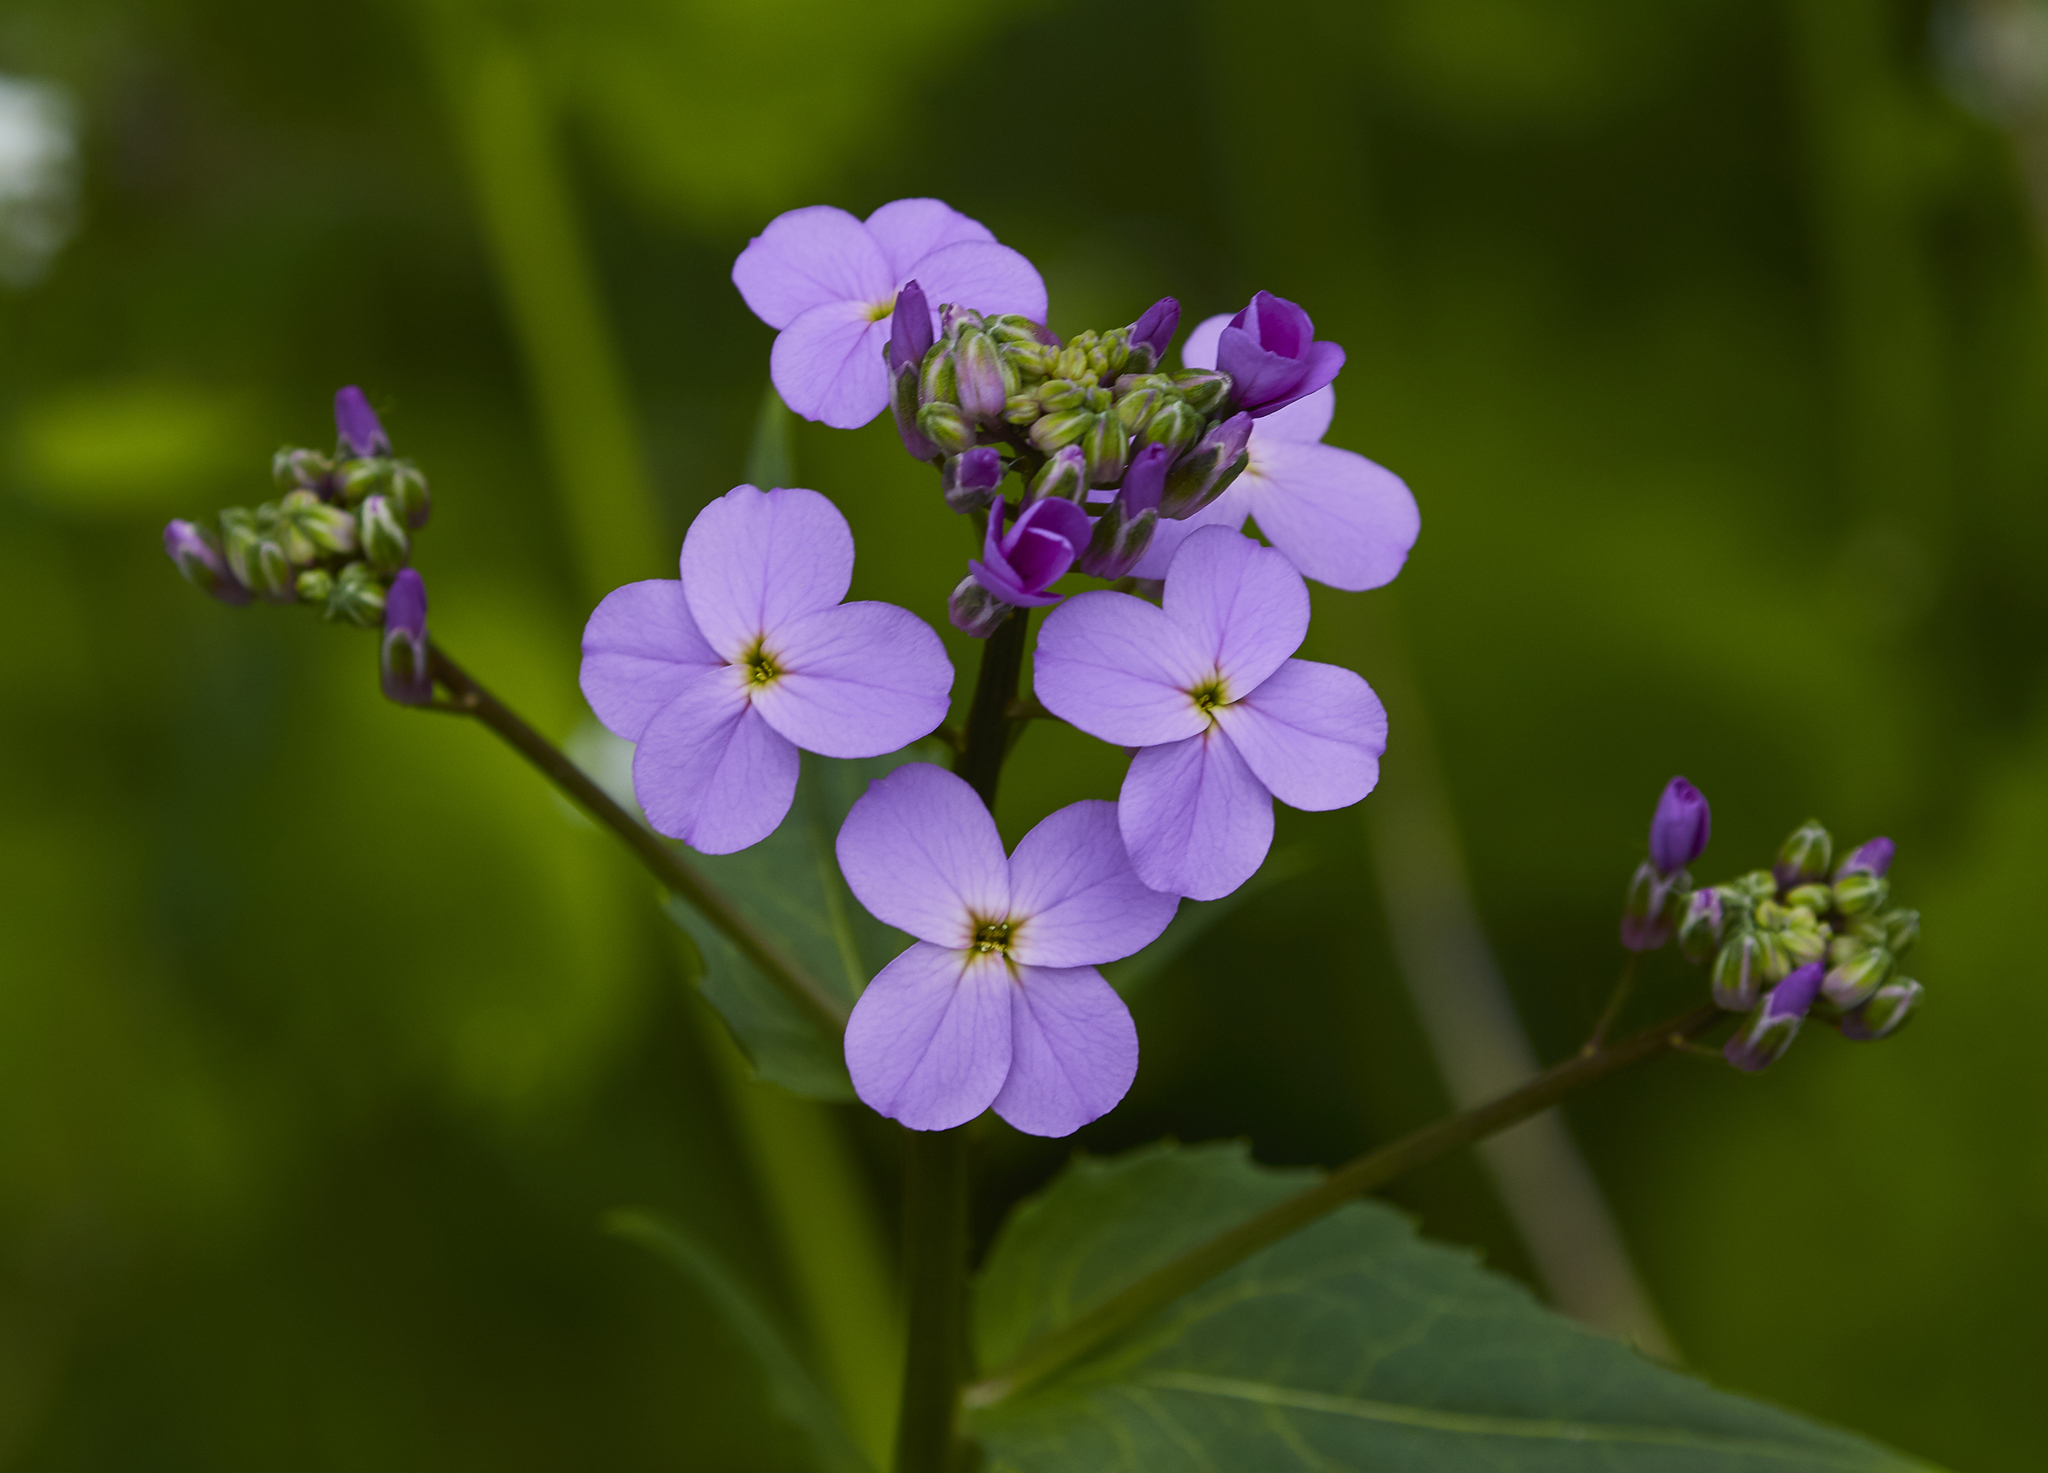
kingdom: Plantae
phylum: Tracheophyta
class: Magnoliopsida
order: Brassicales
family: Brassicaceae
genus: Hesperis
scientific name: Hesperis matronalis
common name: Dame's-violet
